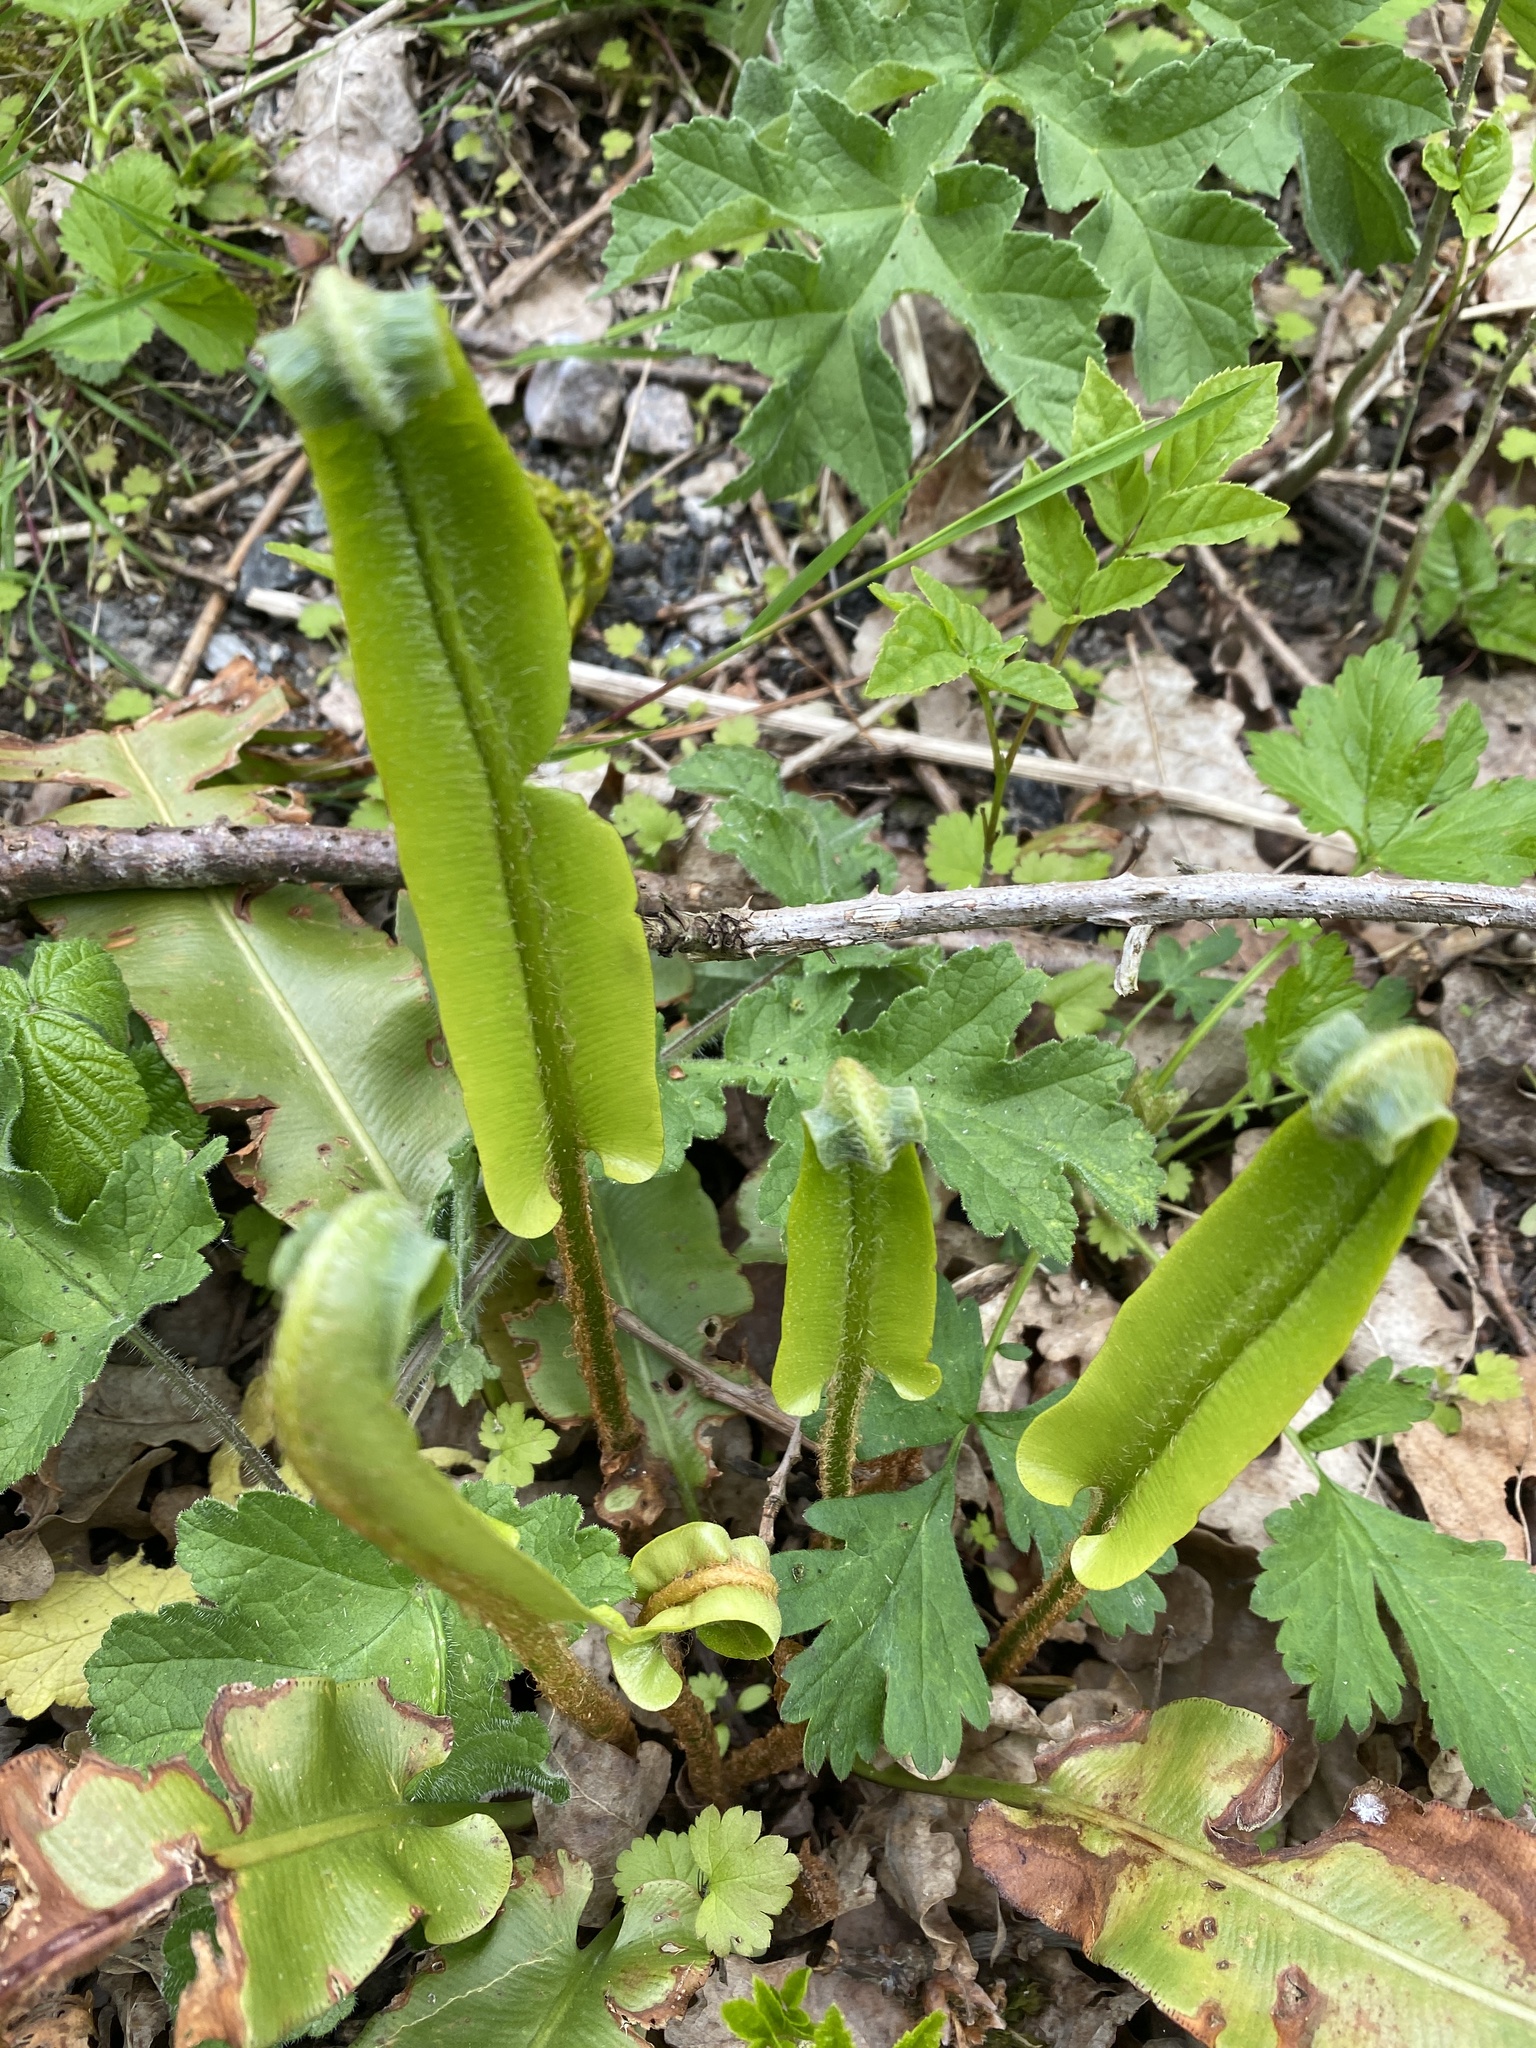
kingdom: Plantae
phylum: Tracheophyta
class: Polypodiopsida
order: Polypodiales
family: Aspleniaceae
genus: Asplenium
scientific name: Asplenium scolopendrium
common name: Hart's-tongue fern
